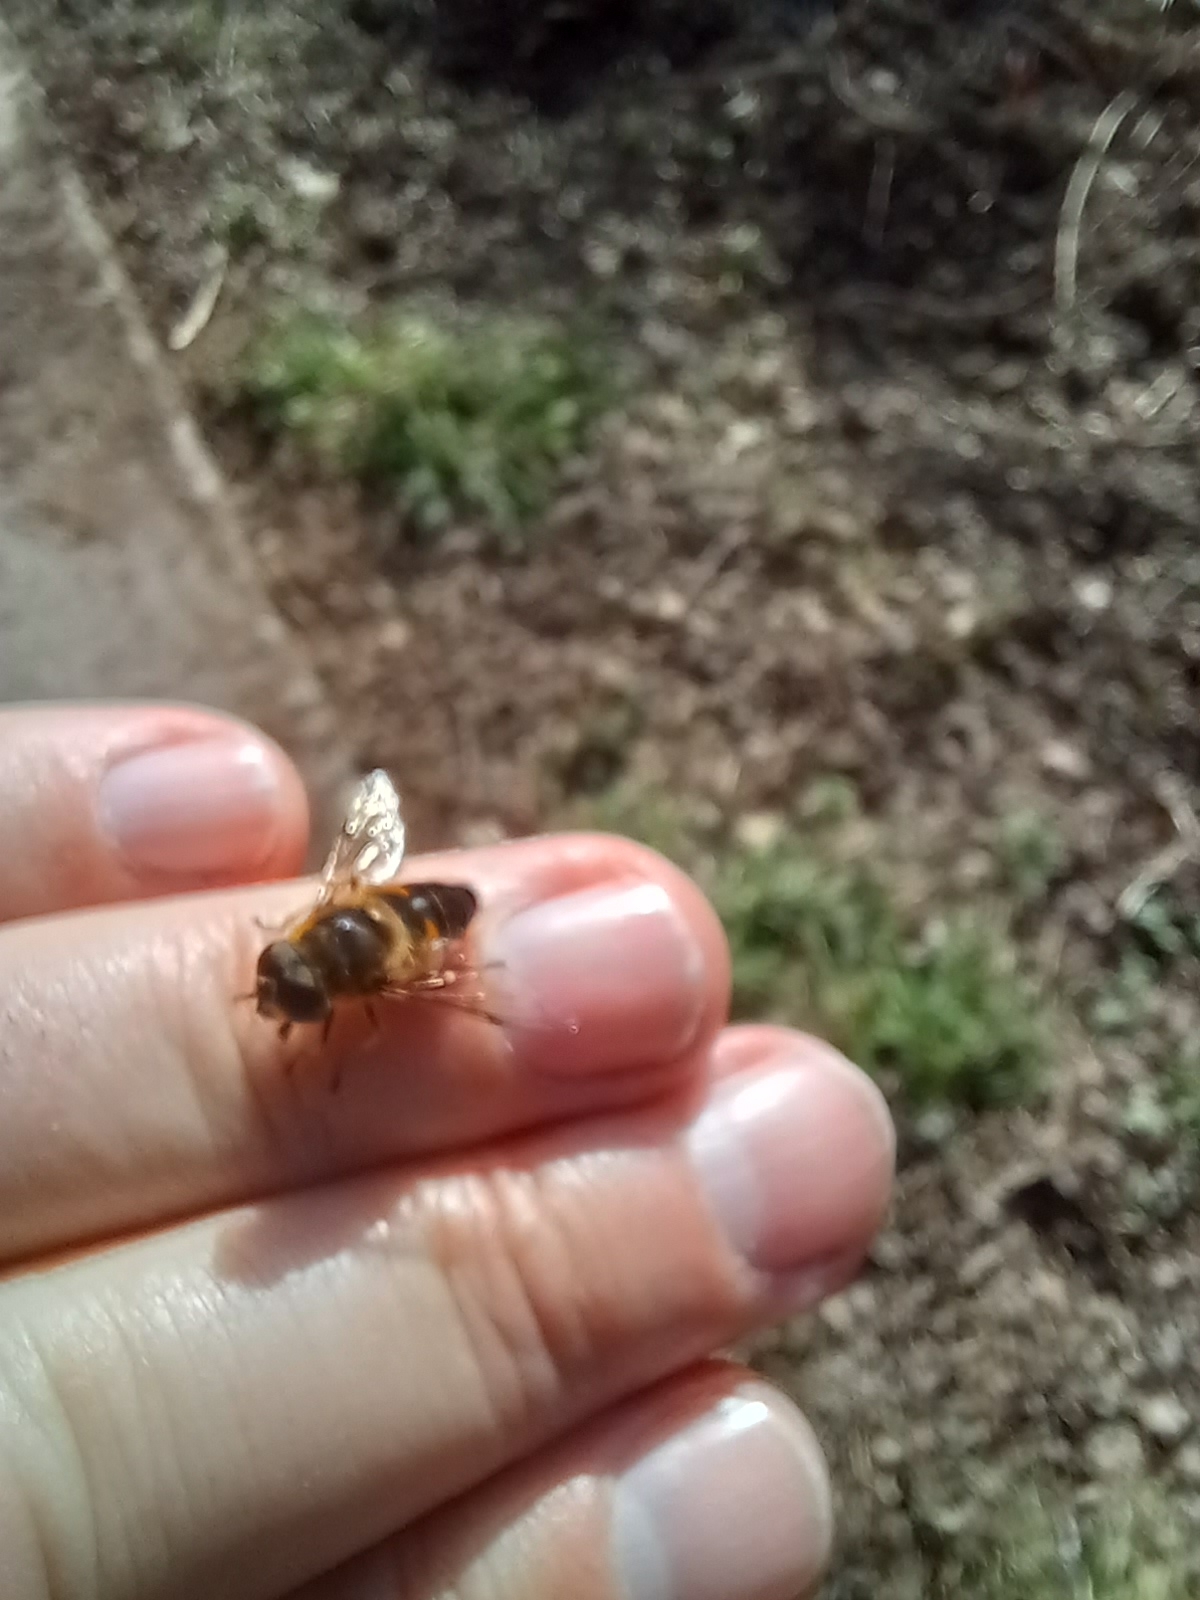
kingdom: Animalia
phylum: Arthropoda
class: Insecta
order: Diptera
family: Syrphidae
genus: Eoseristalis
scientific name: Eoseristalis
